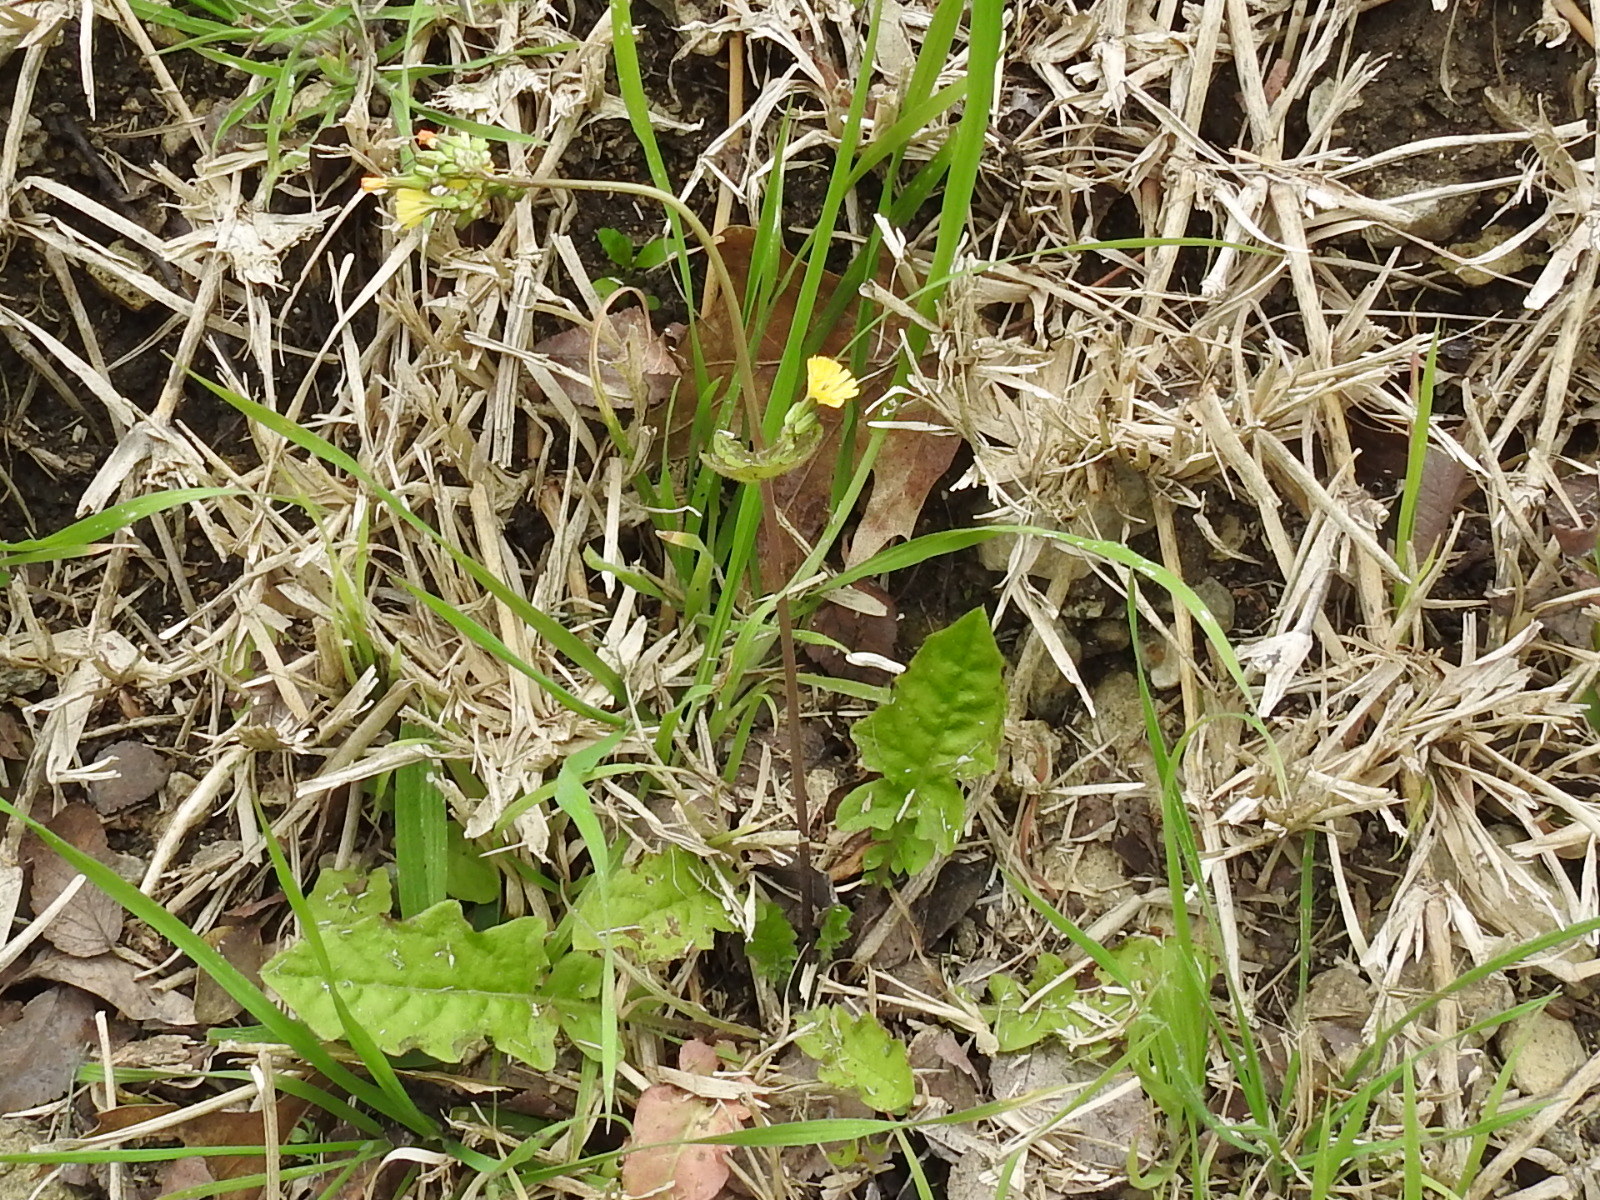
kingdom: Plantae
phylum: Tracheophyta
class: Magnoliopsida
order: Asterales
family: Asteraceae
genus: Youngia
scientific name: Youngia japonica
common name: Oriental false hawksbeard
